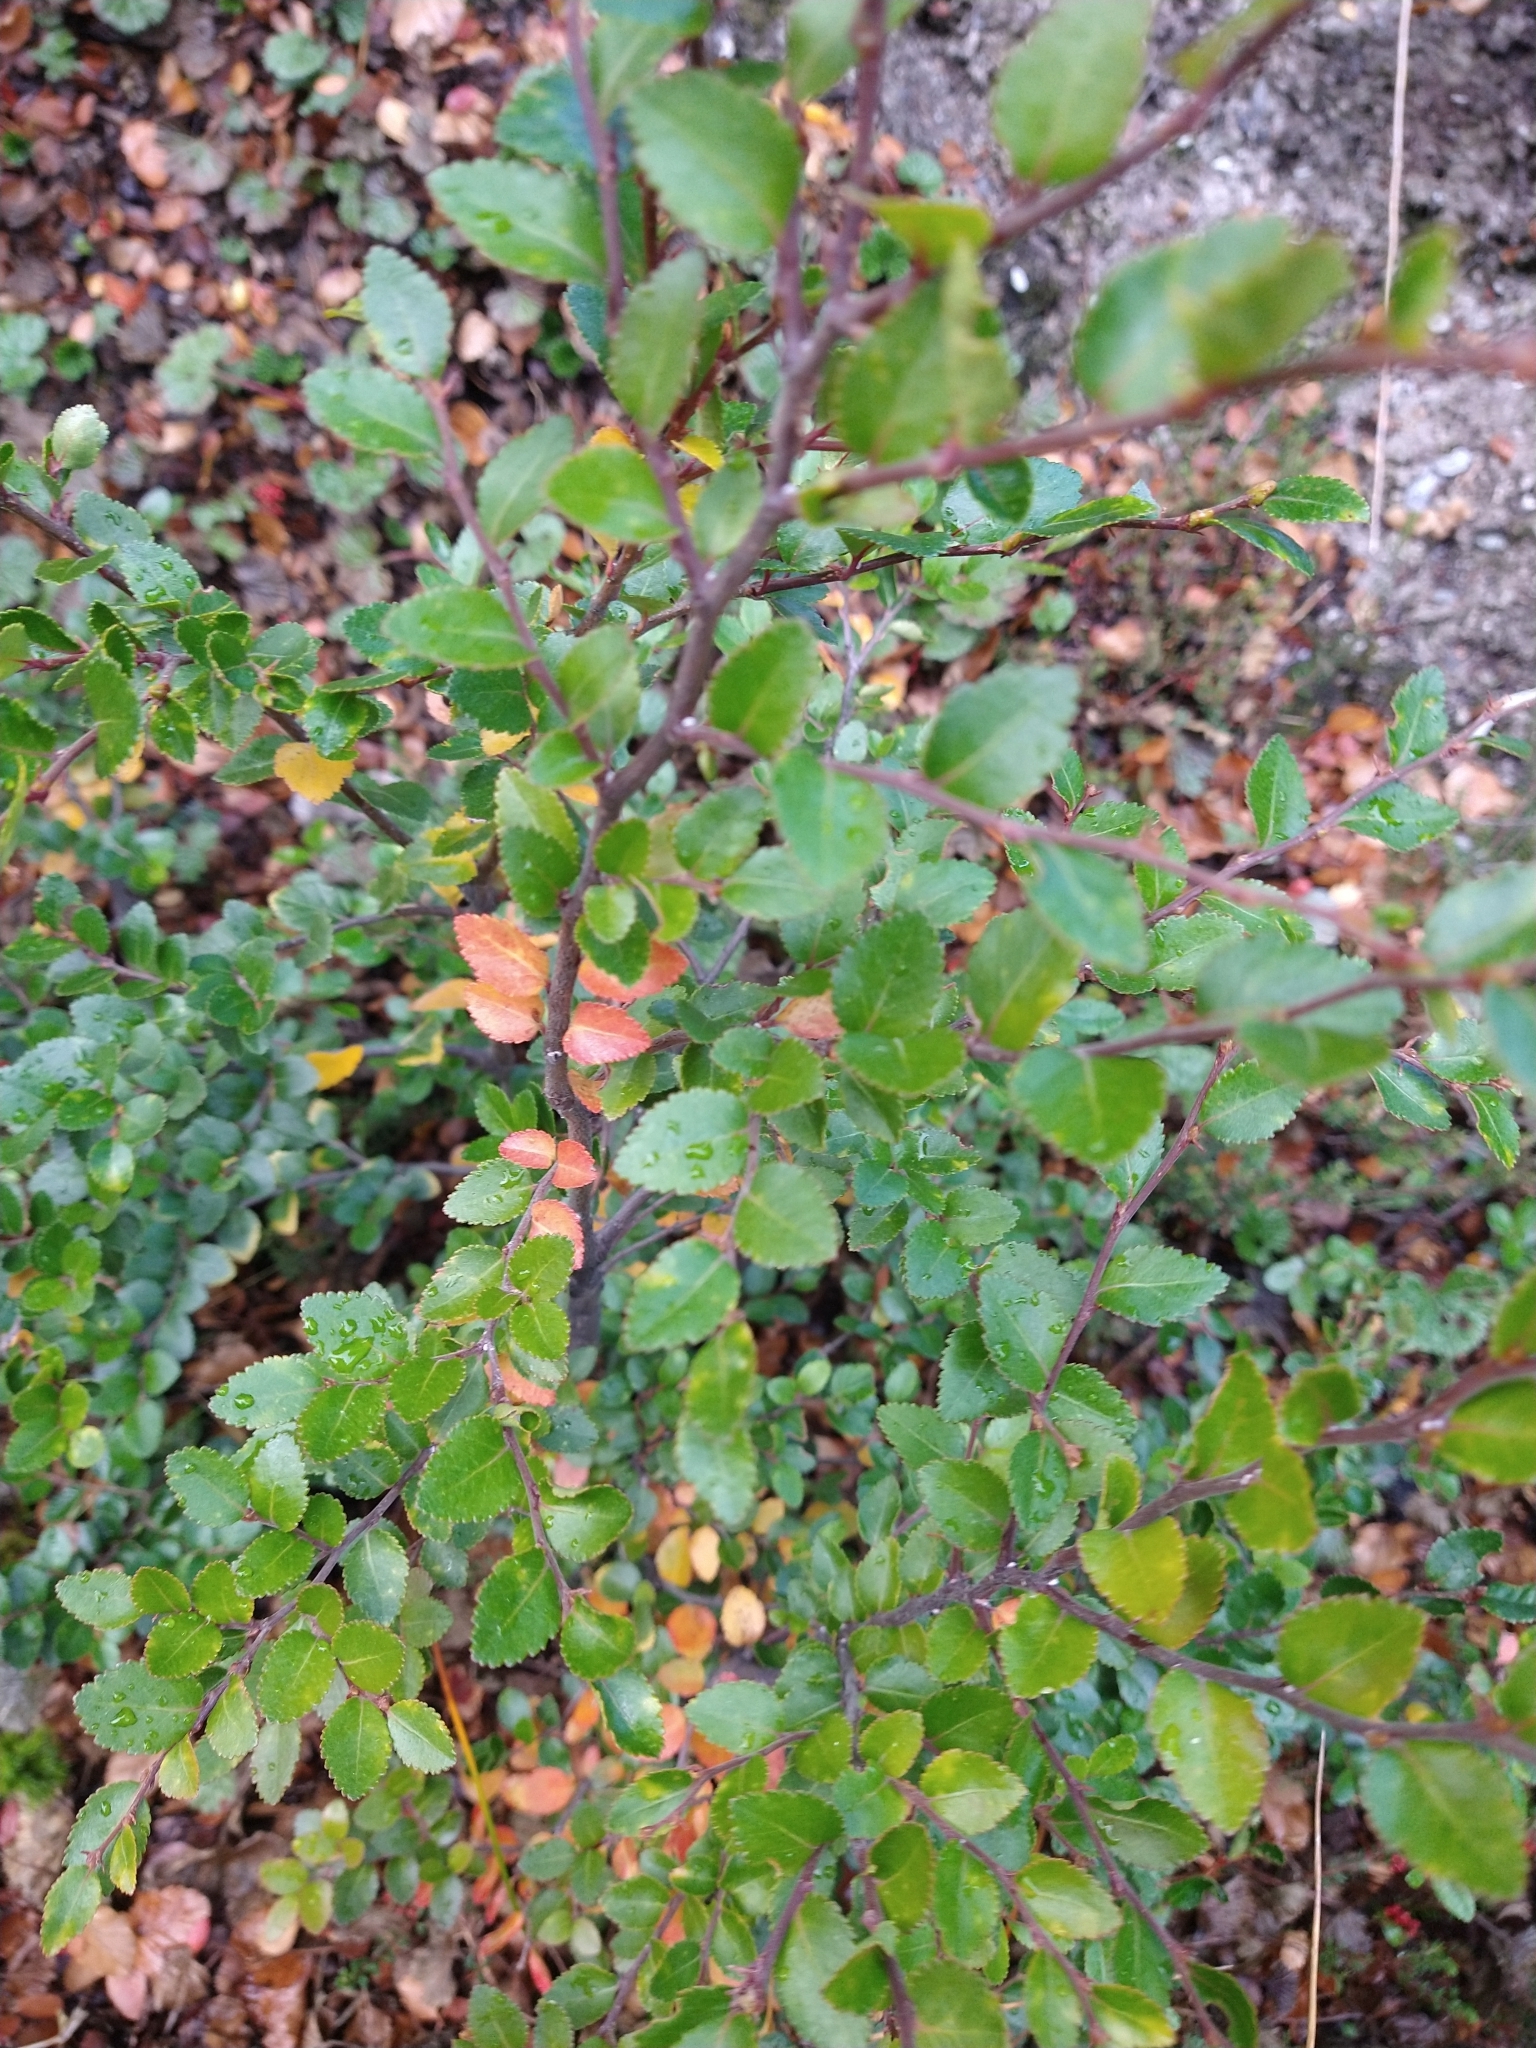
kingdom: Plantae
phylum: Tracheophyta
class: Magnoliopsida
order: Fagales
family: Nothofagaceae
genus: Nothofagus
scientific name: Nothofagus betuloides
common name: Magellan's beech
